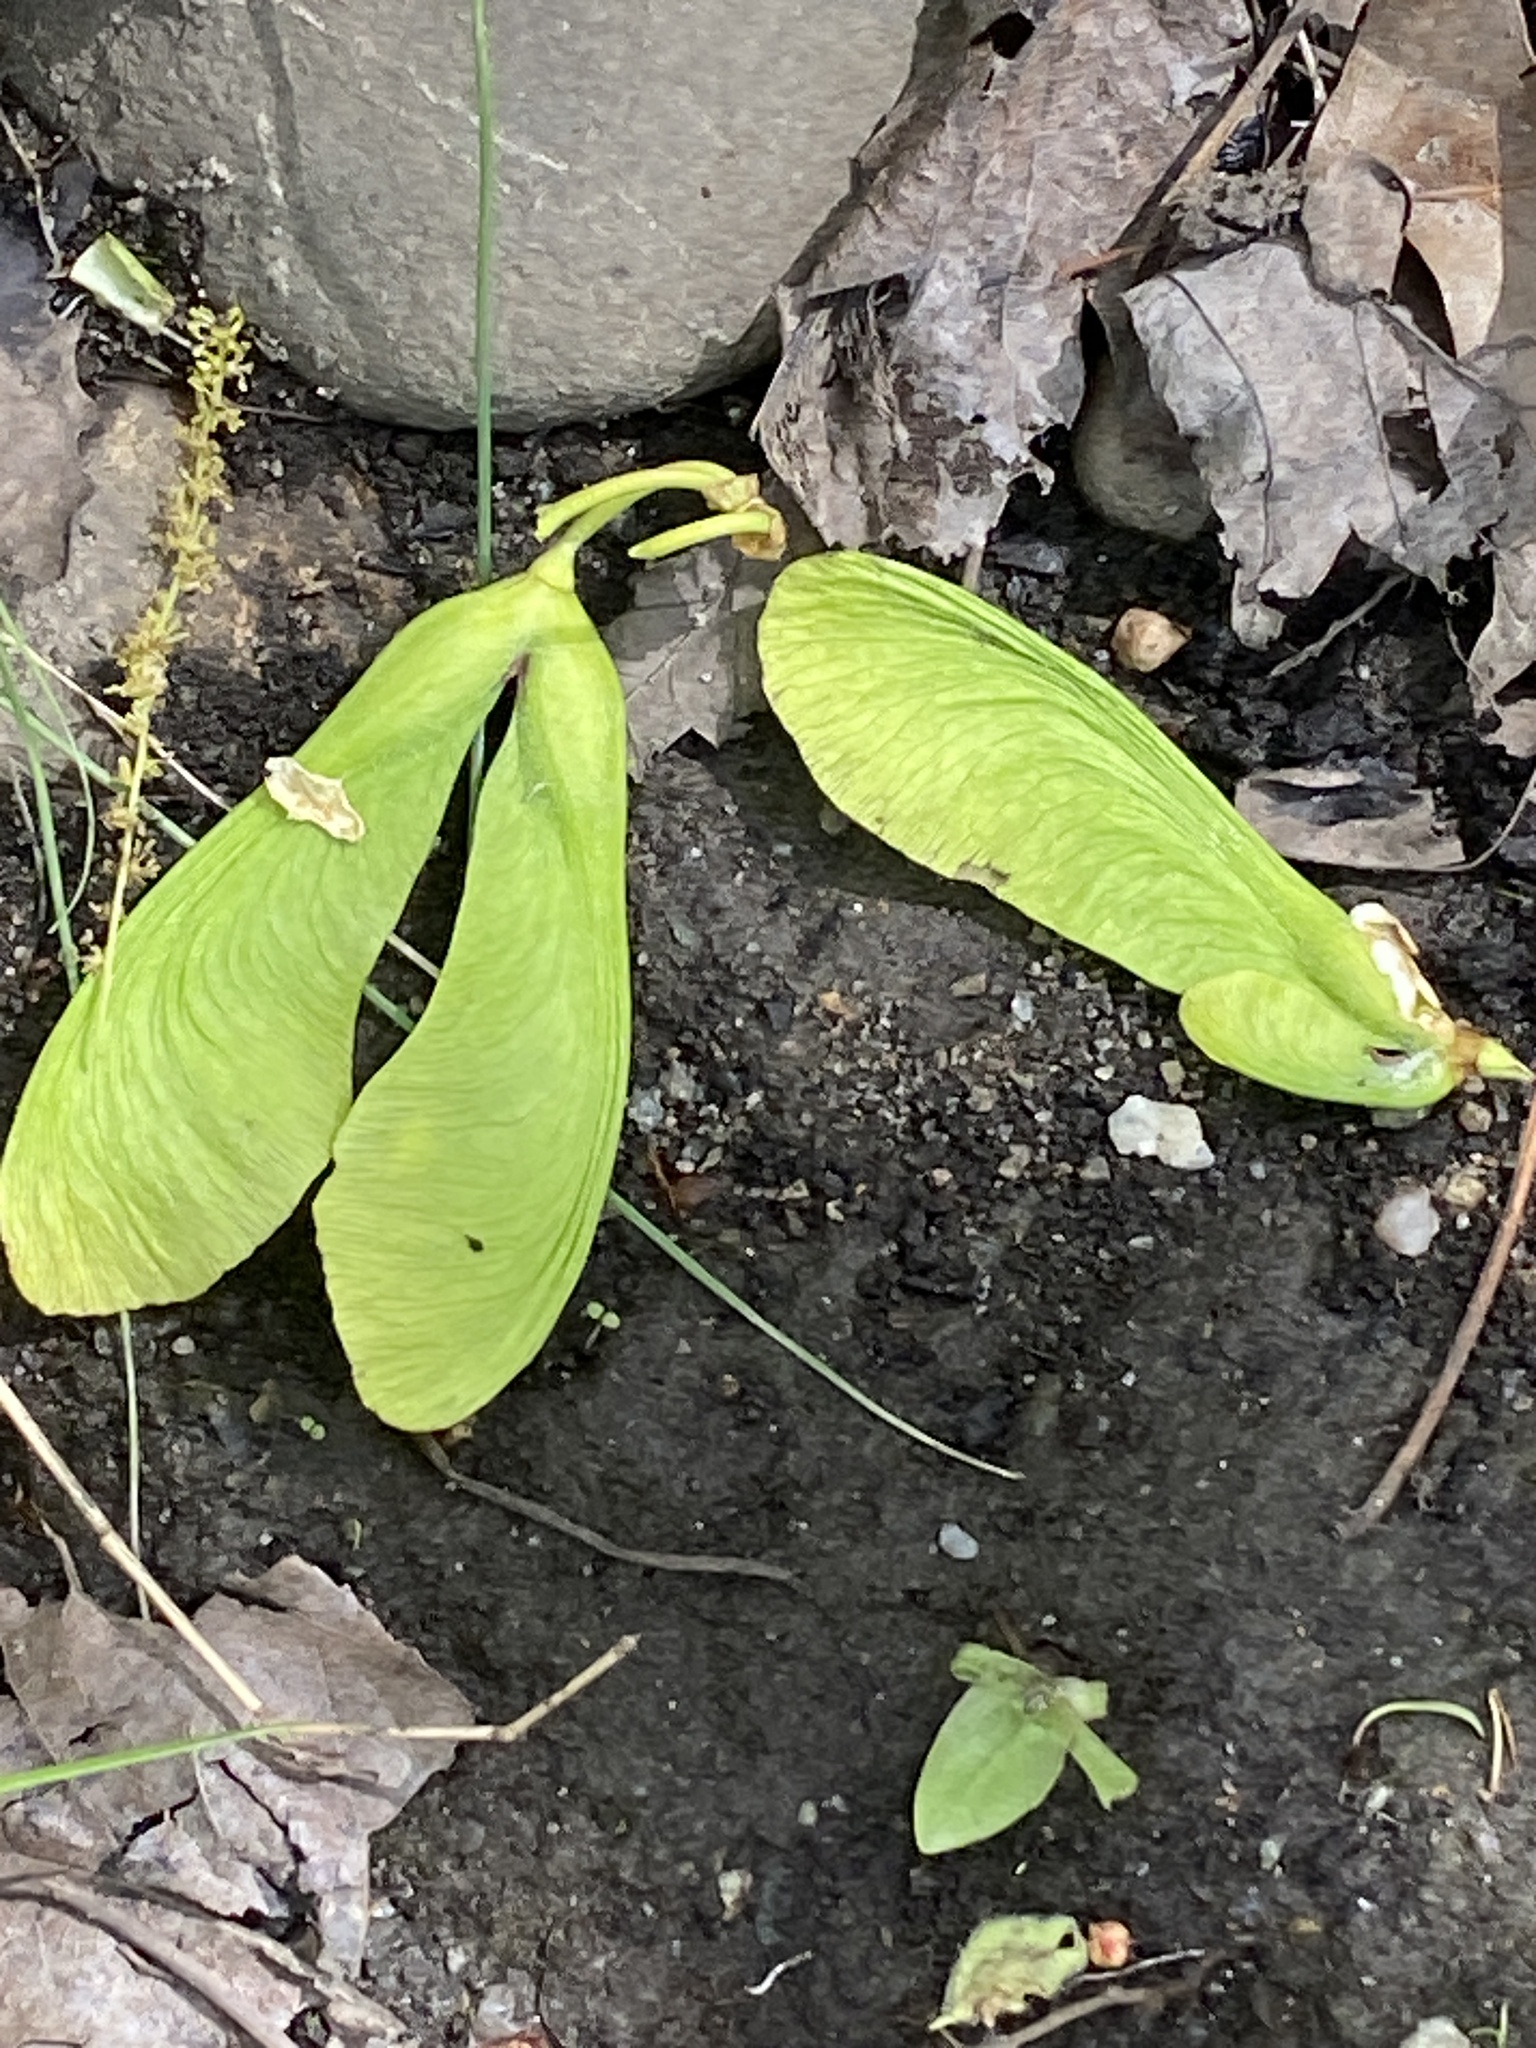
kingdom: Plantae
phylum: Tracheophyta
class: Magnoliopsida
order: Sapindales
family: Sapindaceae
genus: Acer
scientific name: Acer saccharinum
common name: Silver maple
